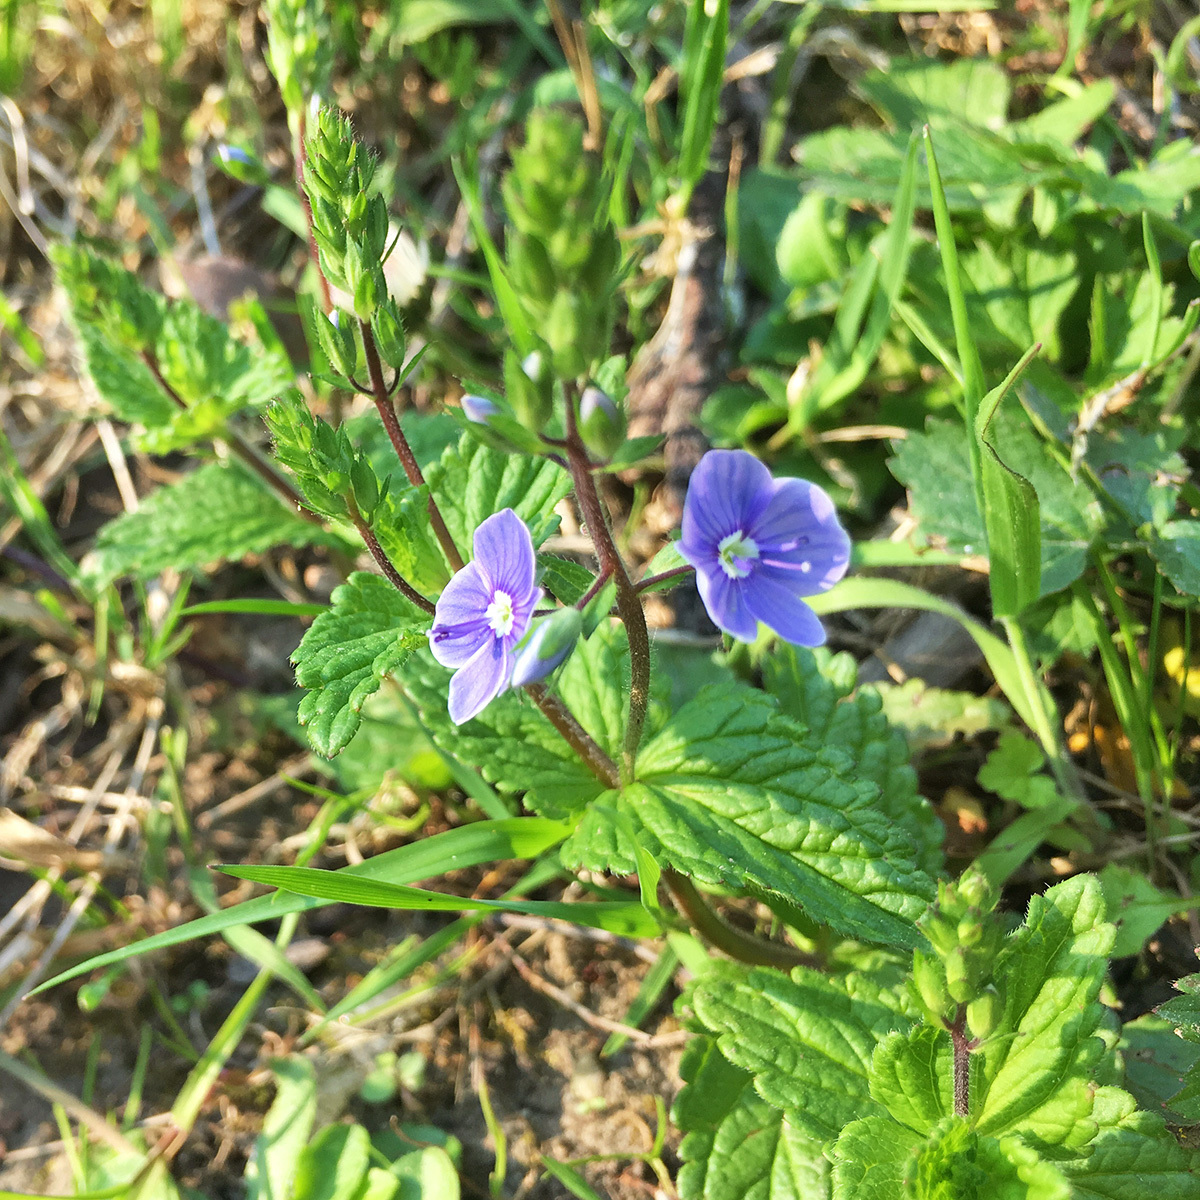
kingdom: Plantae
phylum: Tracheophyta
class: Magnoliopsida
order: Lamiales
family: Plantaginaceae
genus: Veronica
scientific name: Veronica chamaedrys
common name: Germander speedwell
